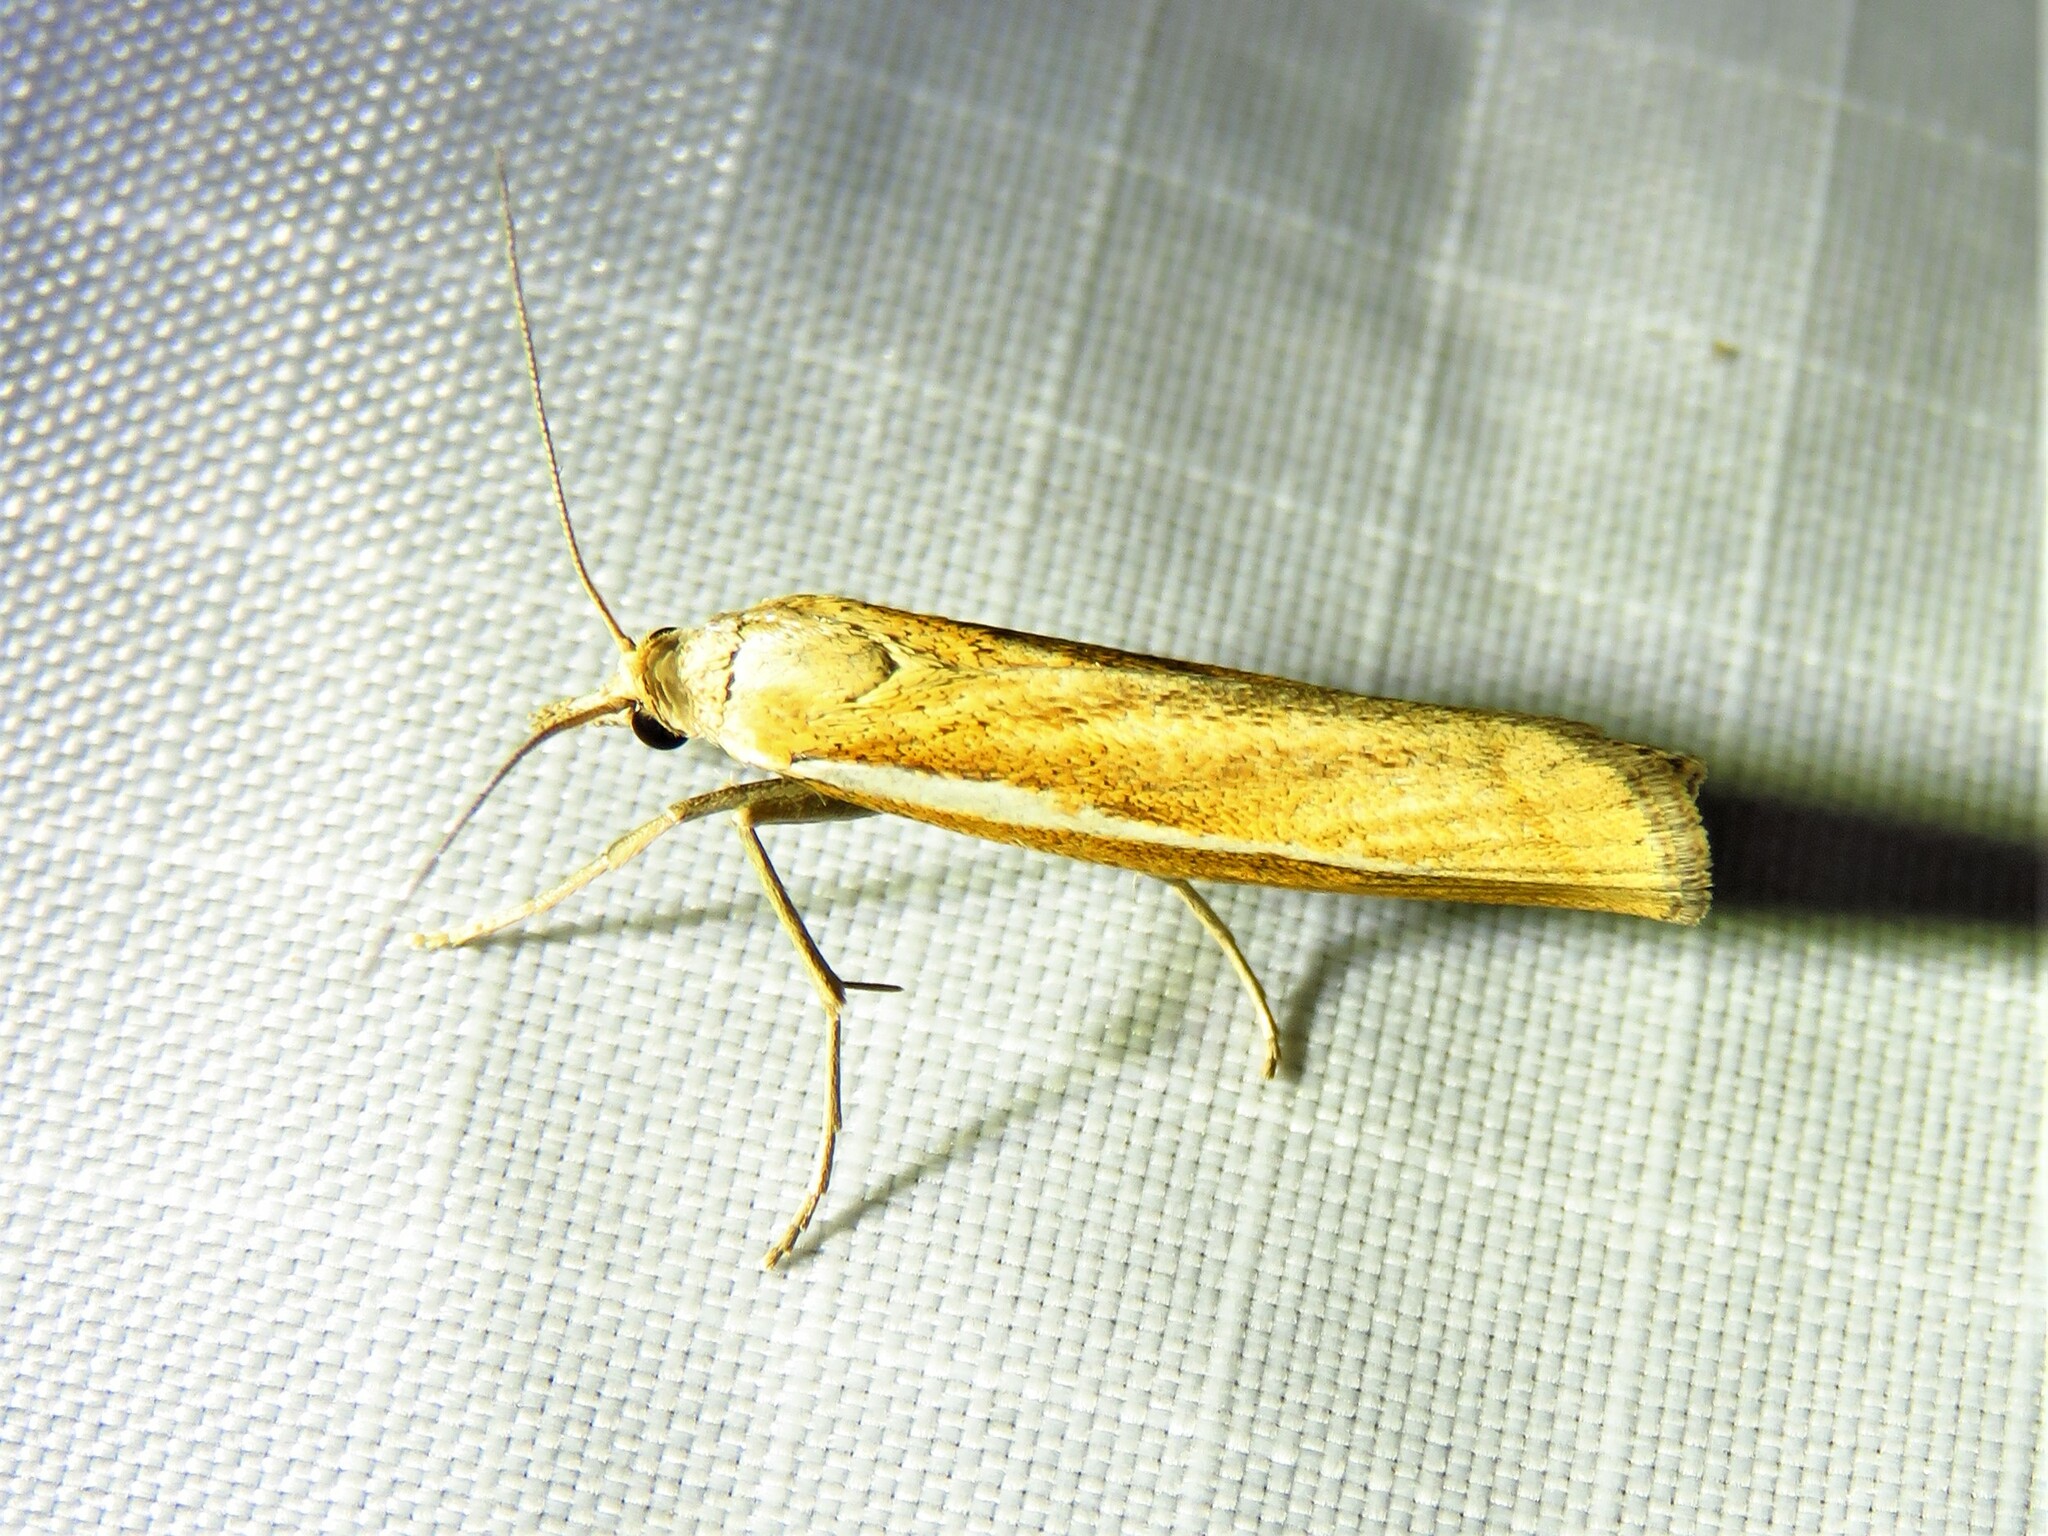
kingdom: Animalia
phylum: Arthropoda
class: Insecta
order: Lepidoptera
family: Crambidae
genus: Agriphila
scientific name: Agriphila tristellus
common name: Common grass-veneer
